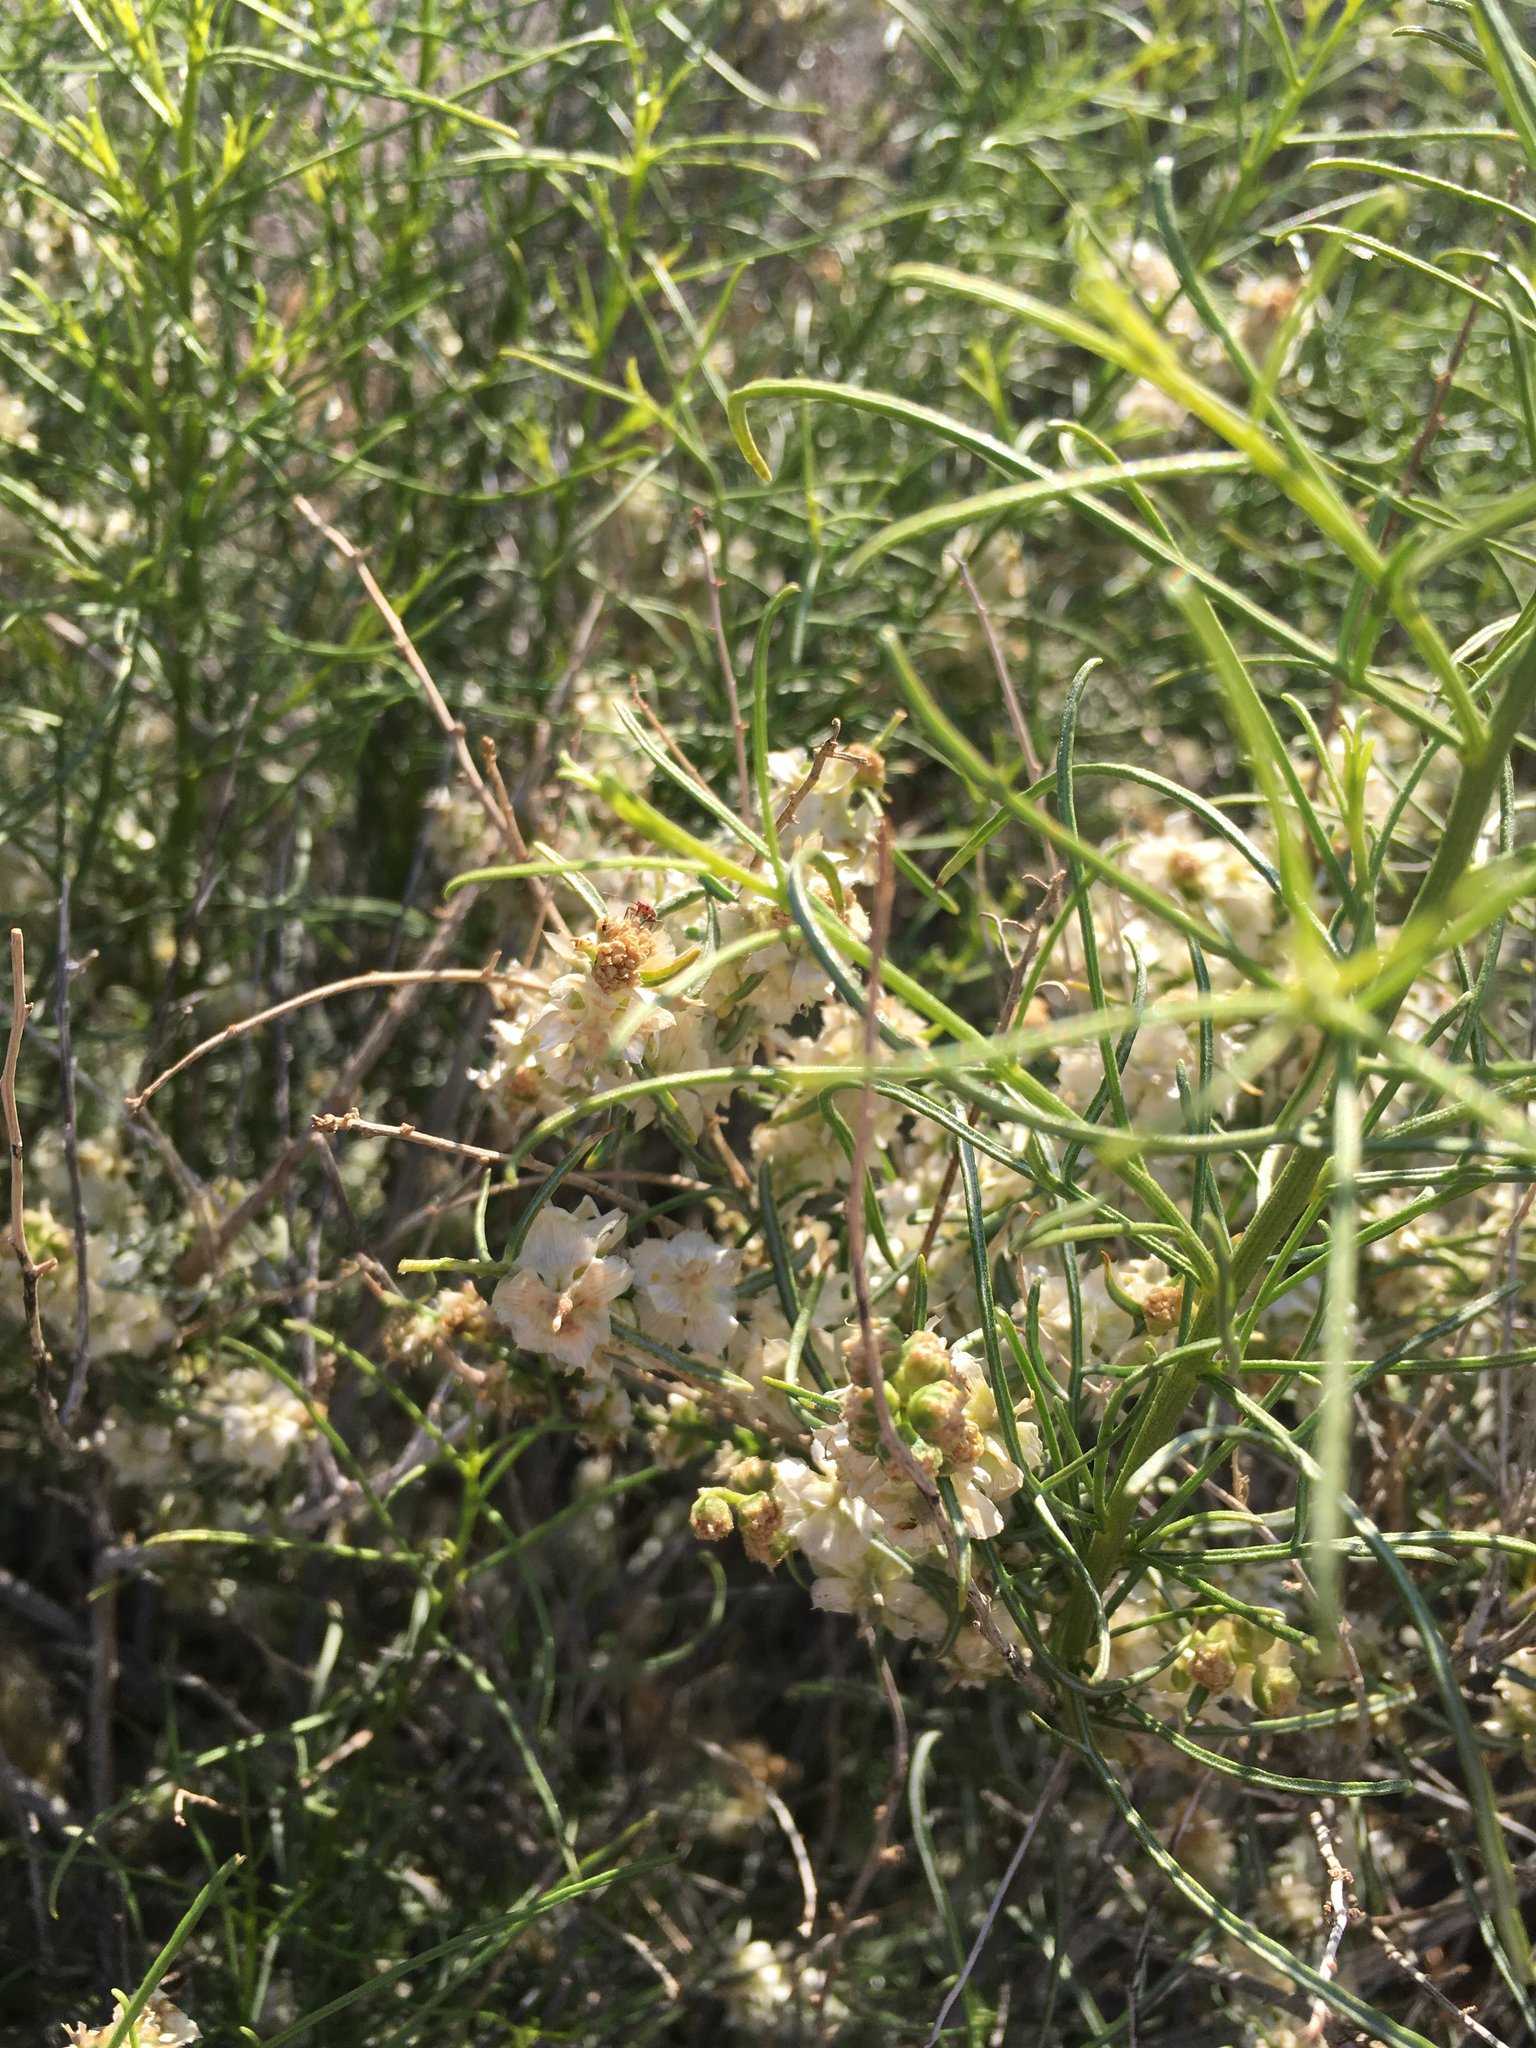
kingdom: Plantae
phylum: Tracheophyta
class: Magnoliopsida
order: Asterales
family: Asteraceae
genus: Ambrosia
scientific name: Ambrosia salsola
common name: Burrobrush
